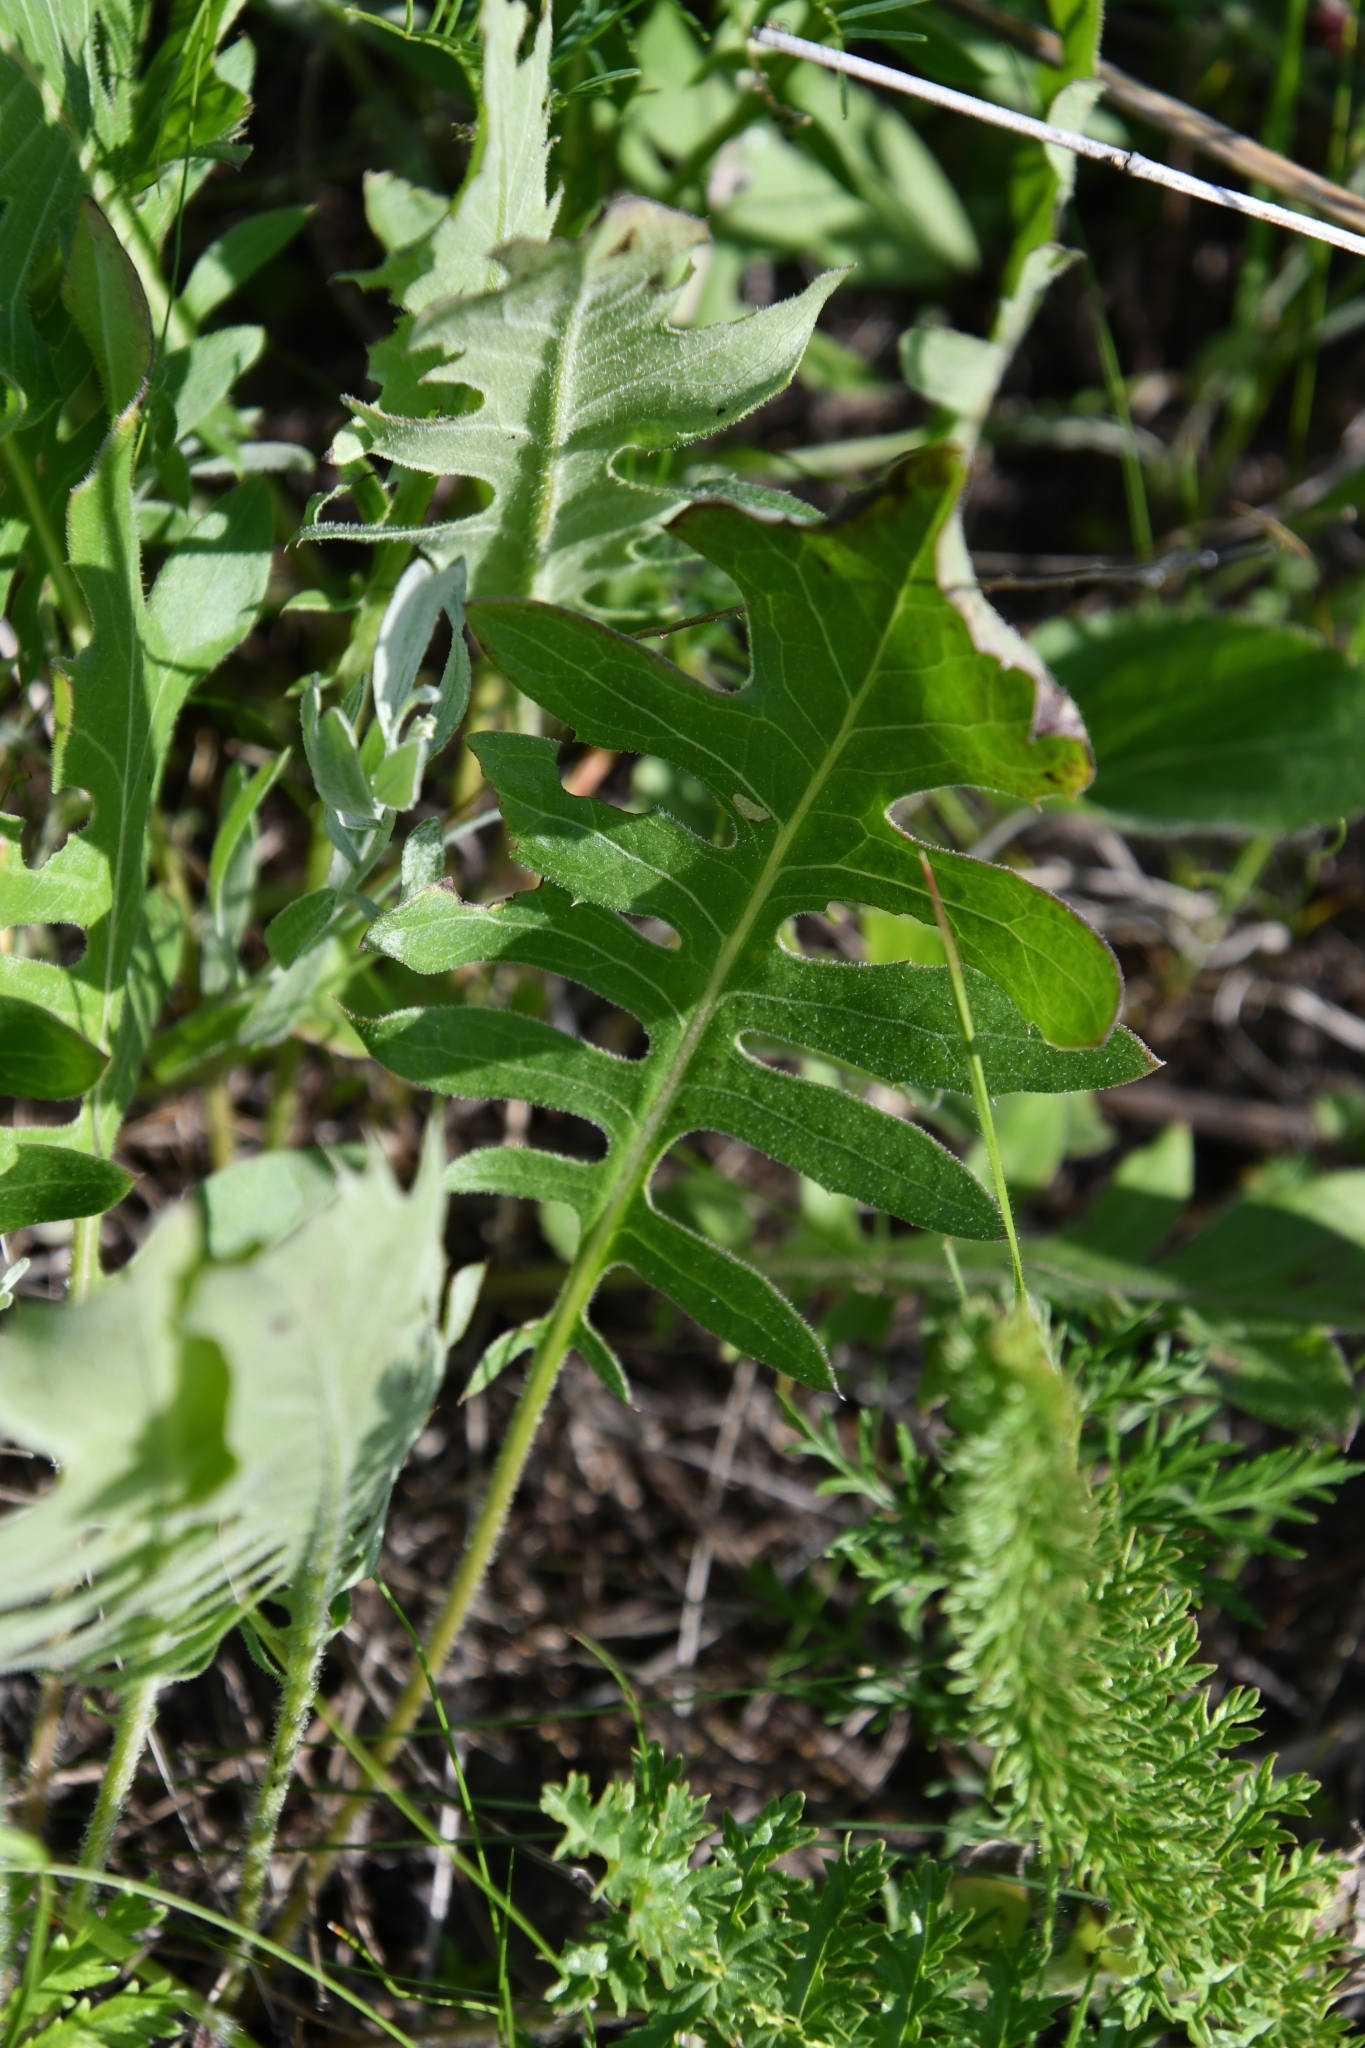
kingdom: Plantae
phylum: Tracheophyta
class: Magnoliopsida
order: Asterales
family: Asteraceae
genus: Klasea
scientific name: Klasea radiata
